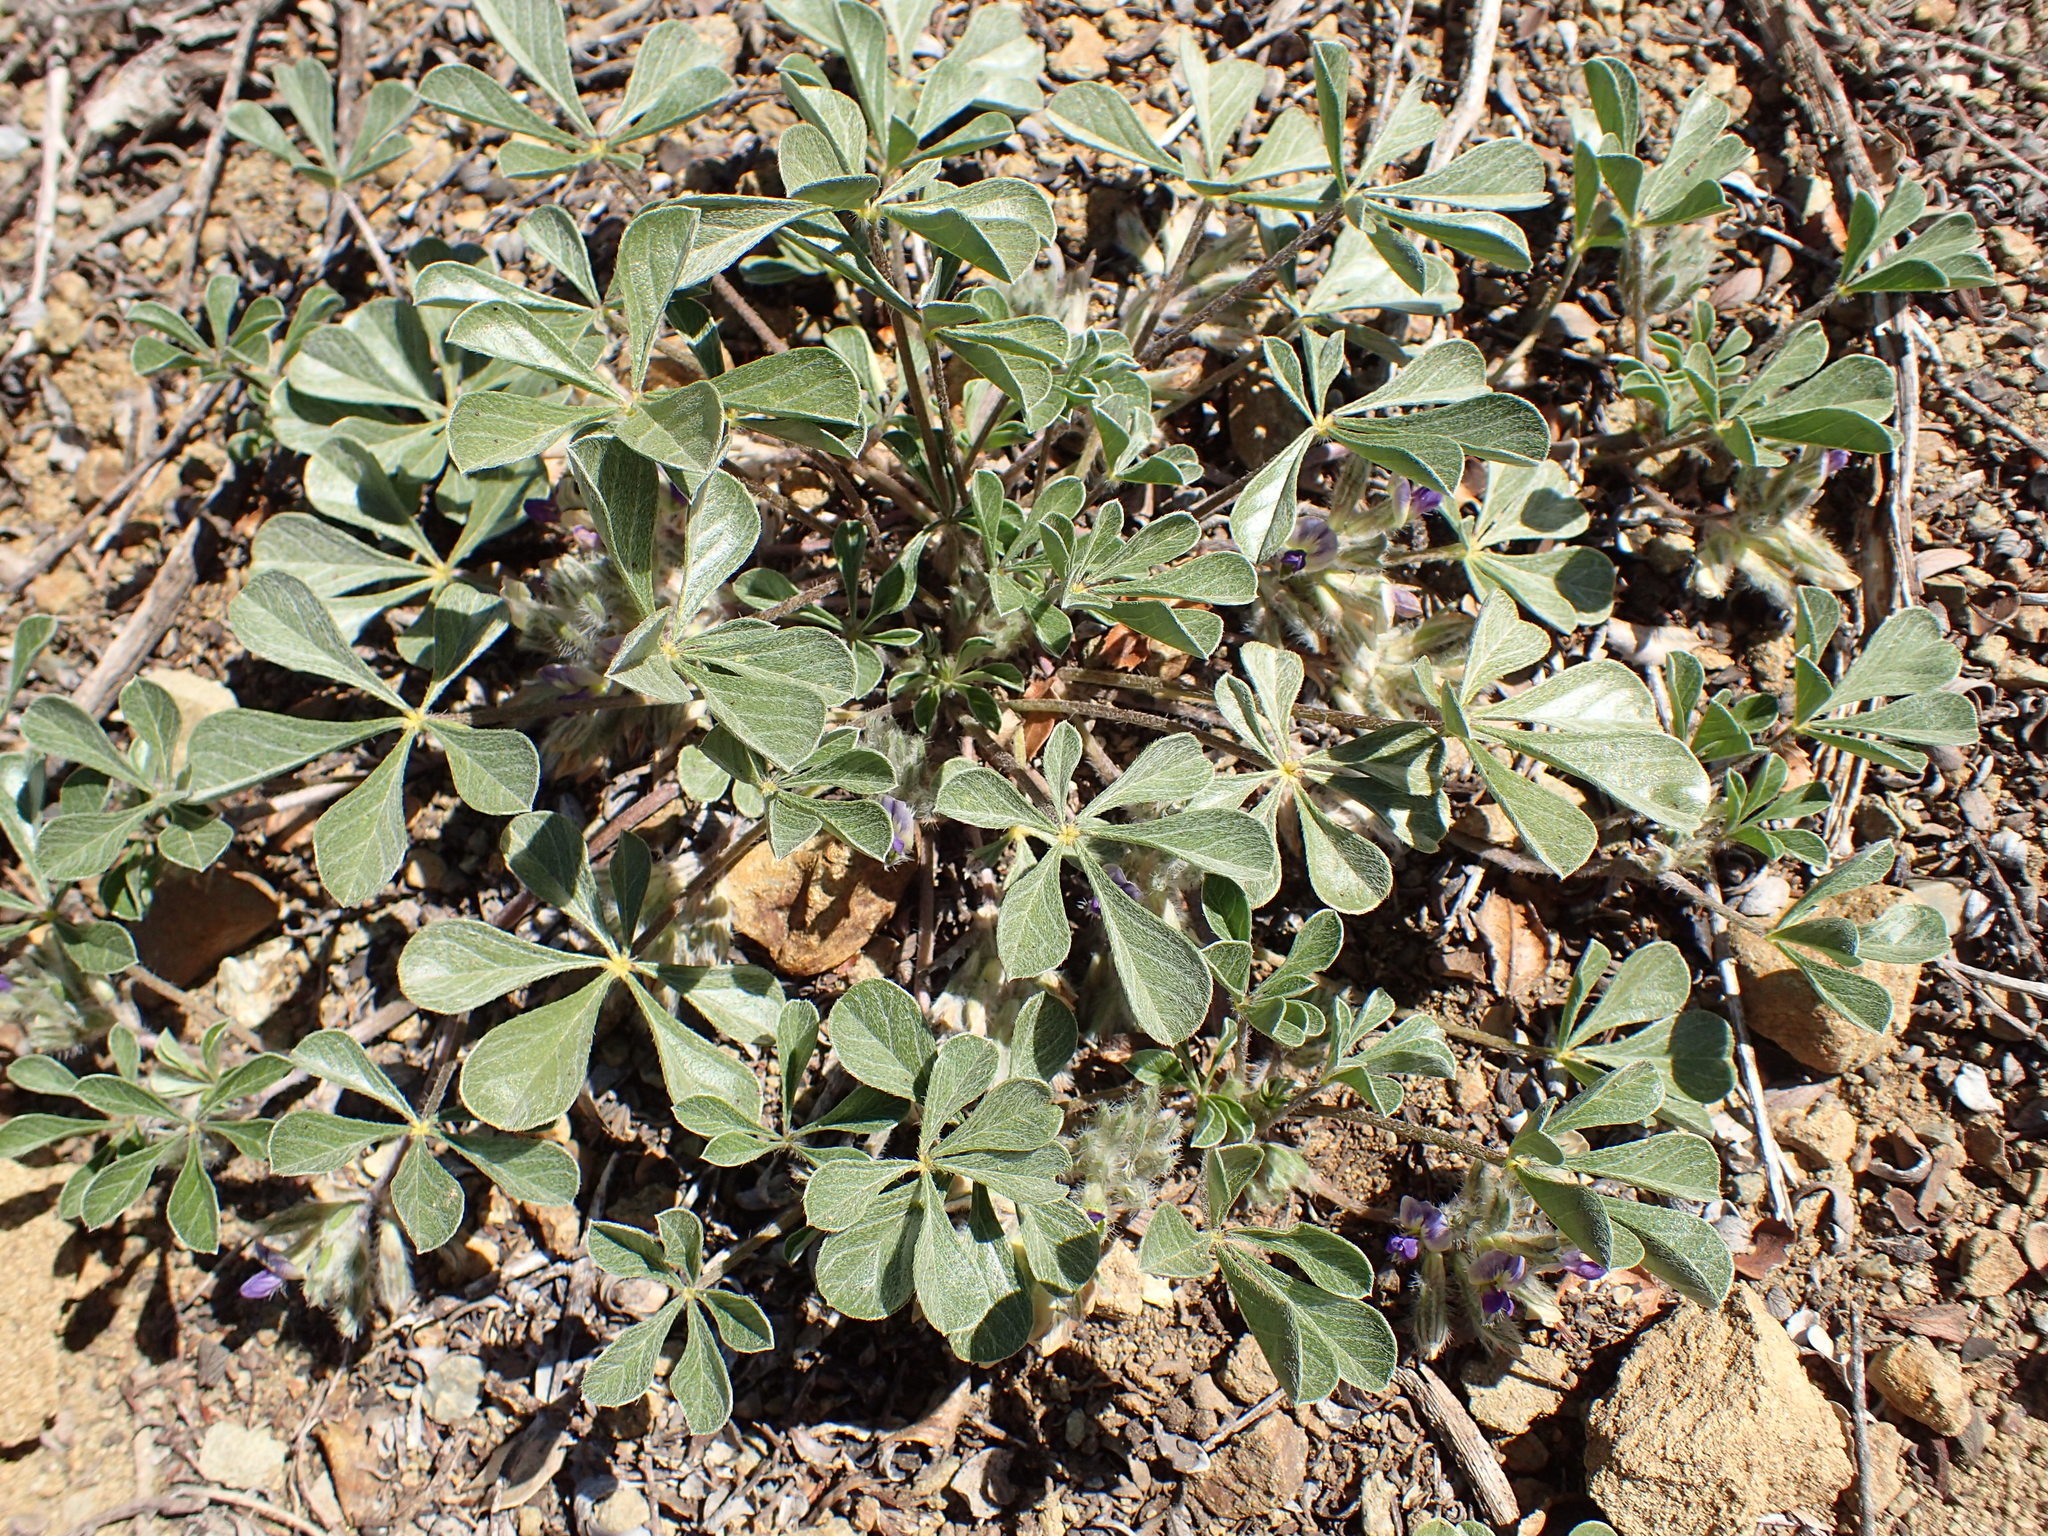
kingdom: Plantae
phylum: Tracheophyta
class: Magnoliopsida
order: Fabales
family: Fabaceae
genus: Pediomelum
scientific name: Pediomelum californicum
